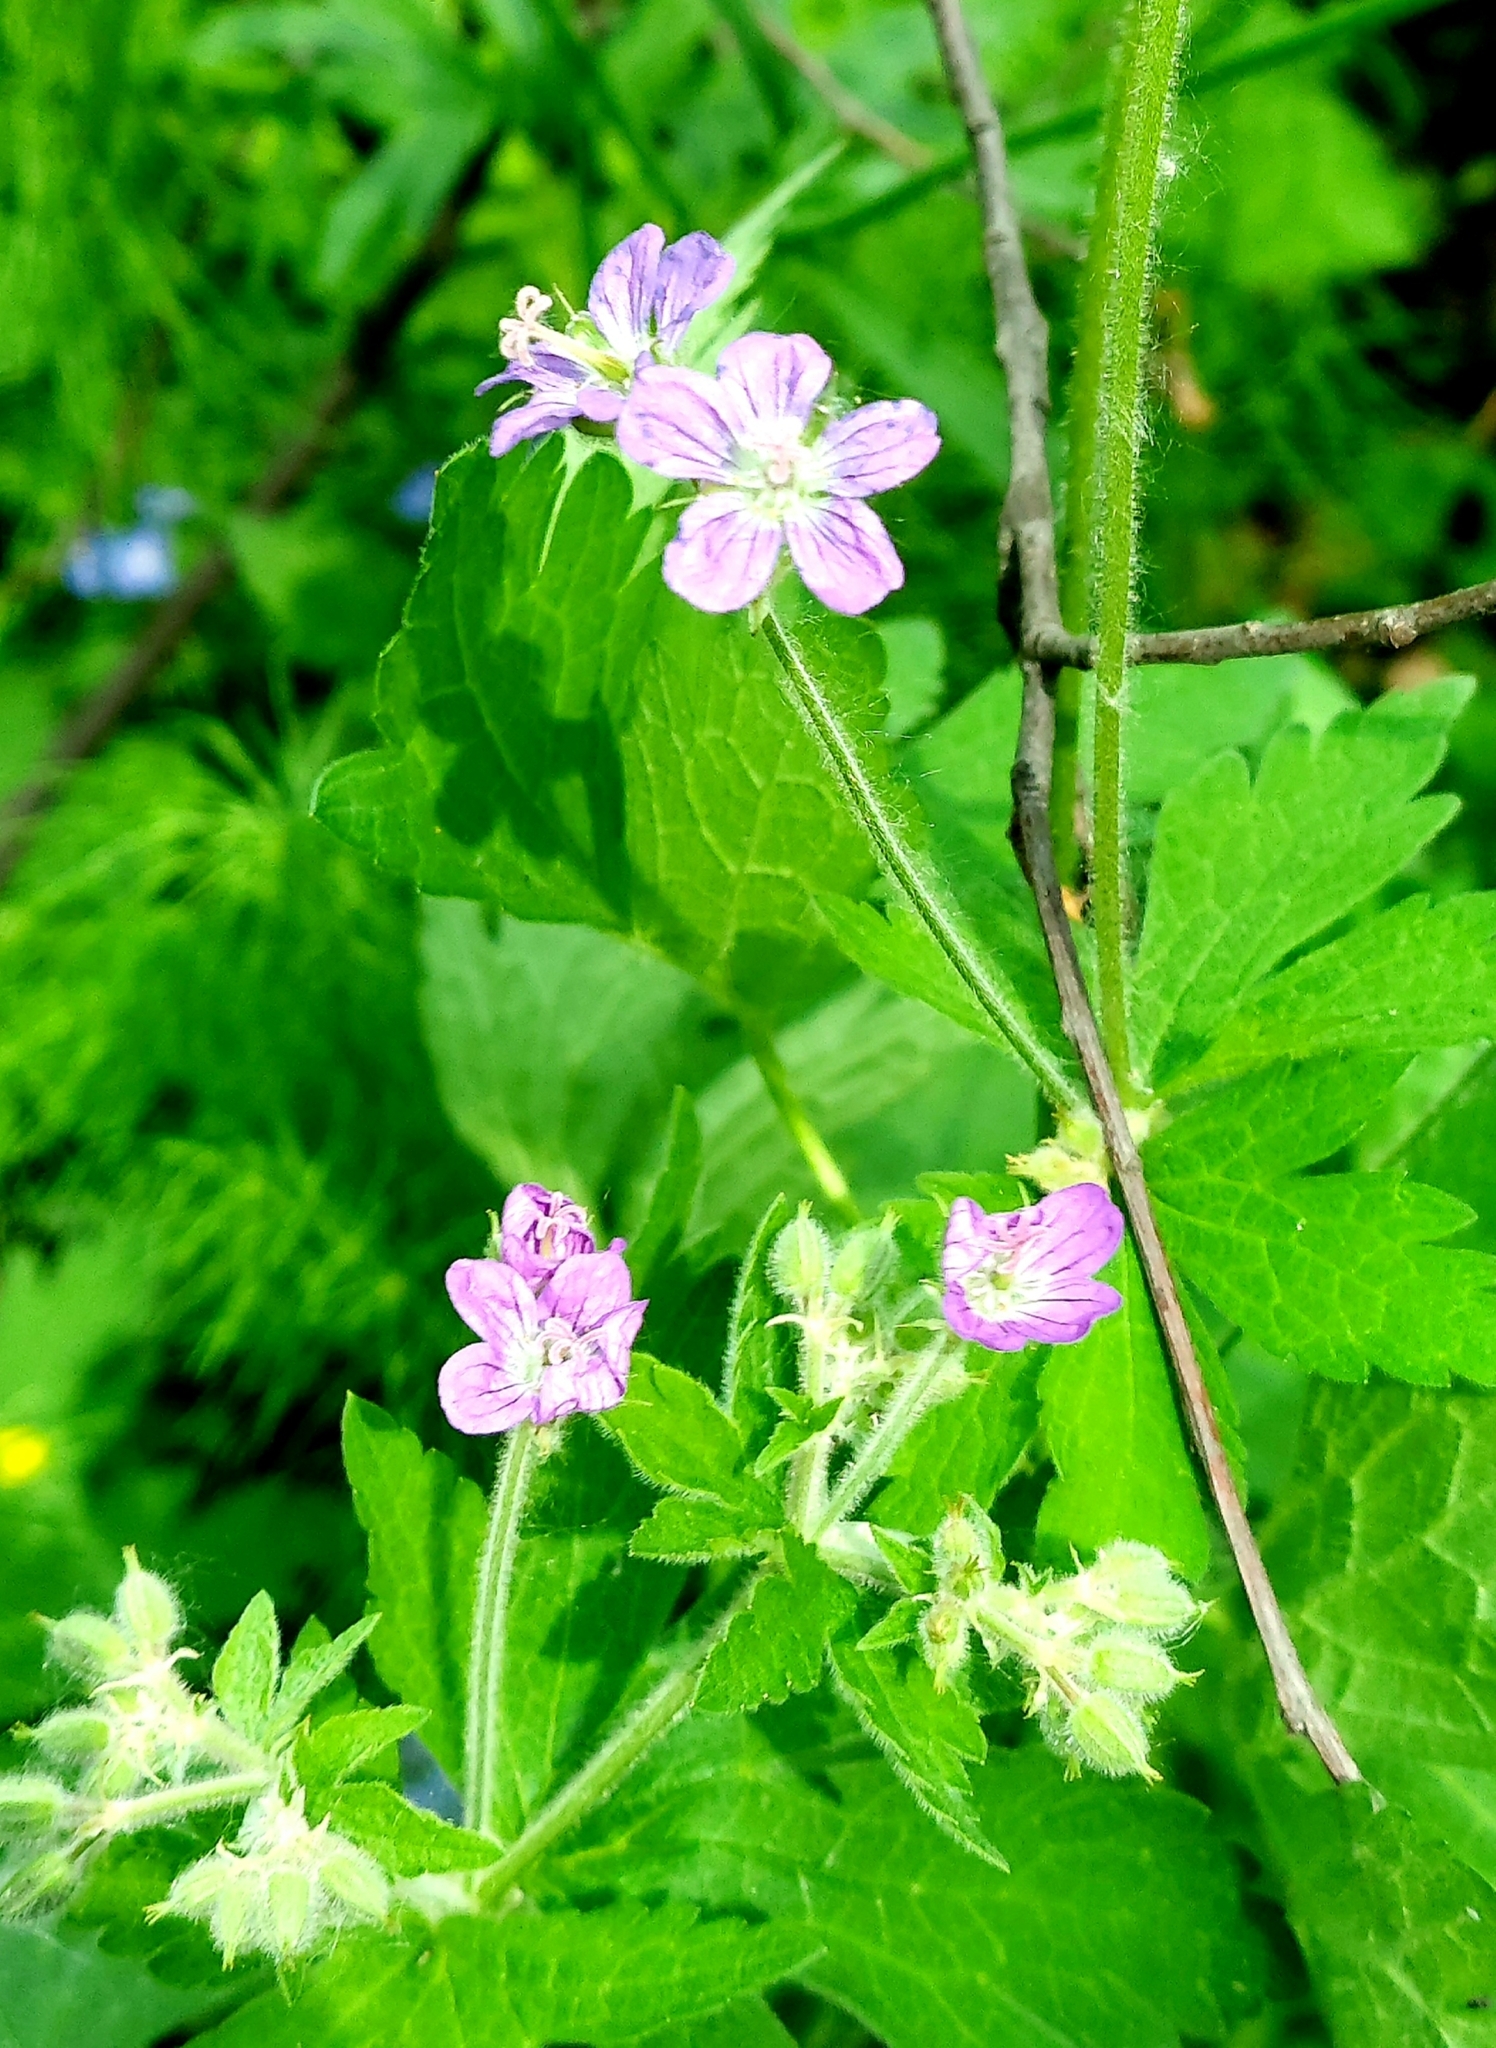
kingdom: Plantae
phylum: Tracheophyta
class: Magnoliopsida
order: Geraniales
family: Geraniaceae
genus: Geranium
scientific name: Geranium sylvaticum
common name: Wood crane's-bill
